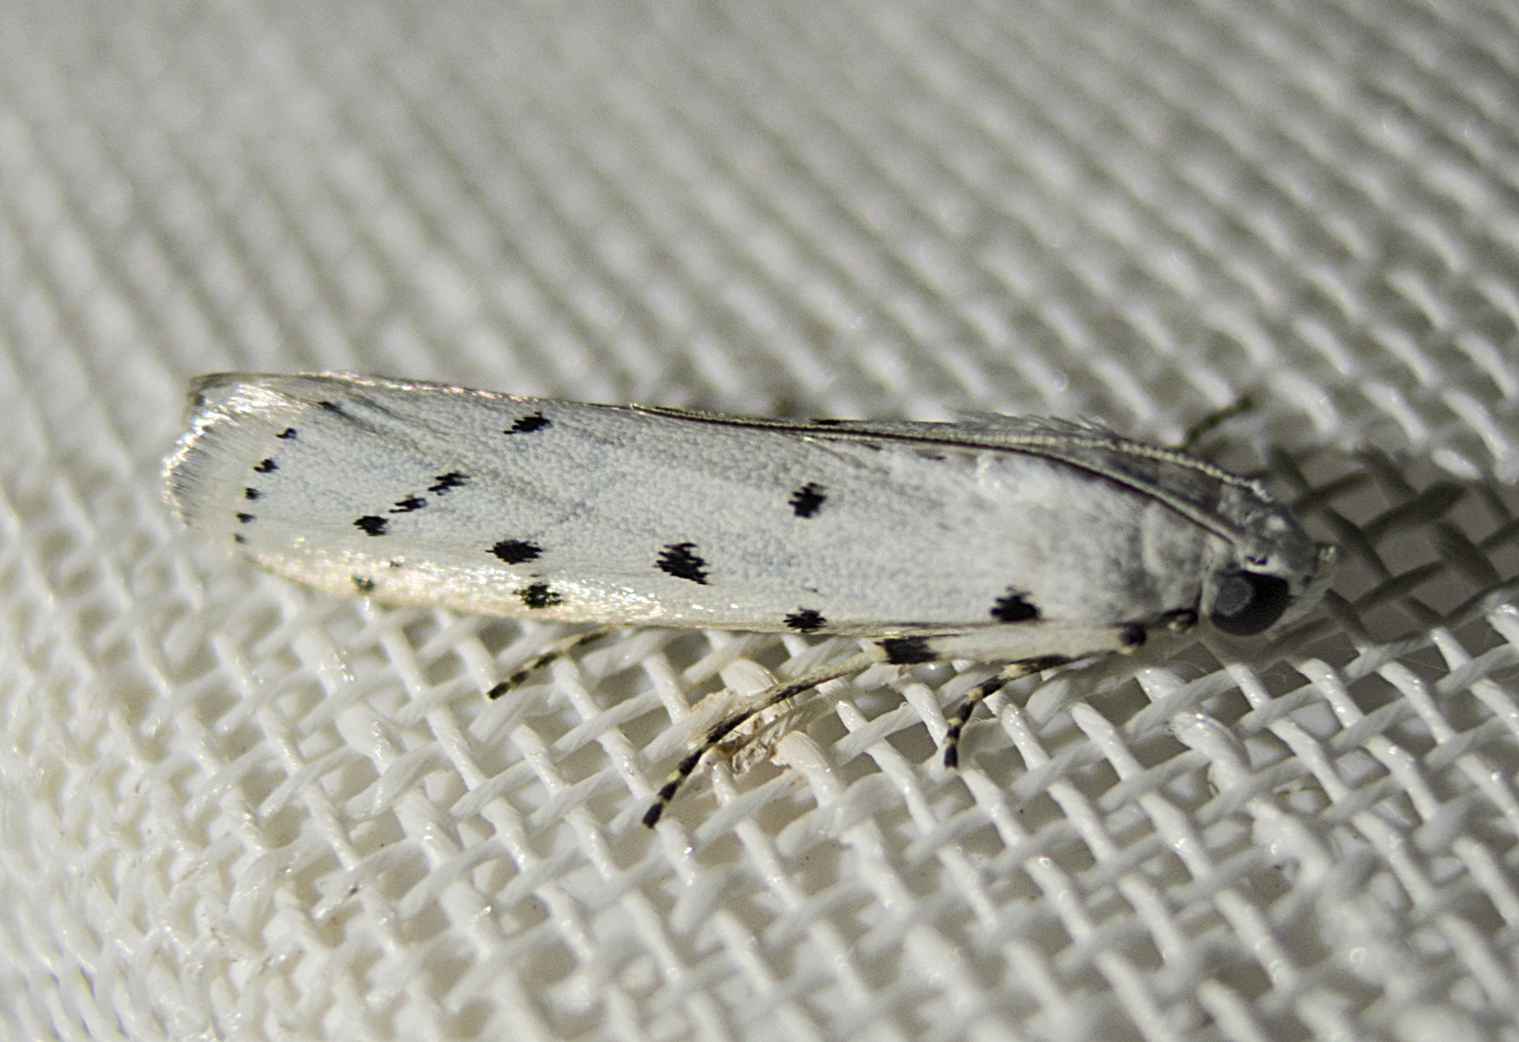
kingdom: Animalia
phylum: Arthropoda
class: Insecta
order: Lepidoptera
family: Pyralidae
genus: Myelois
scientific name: Myelois circumvoluta
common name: Thistle ermine
